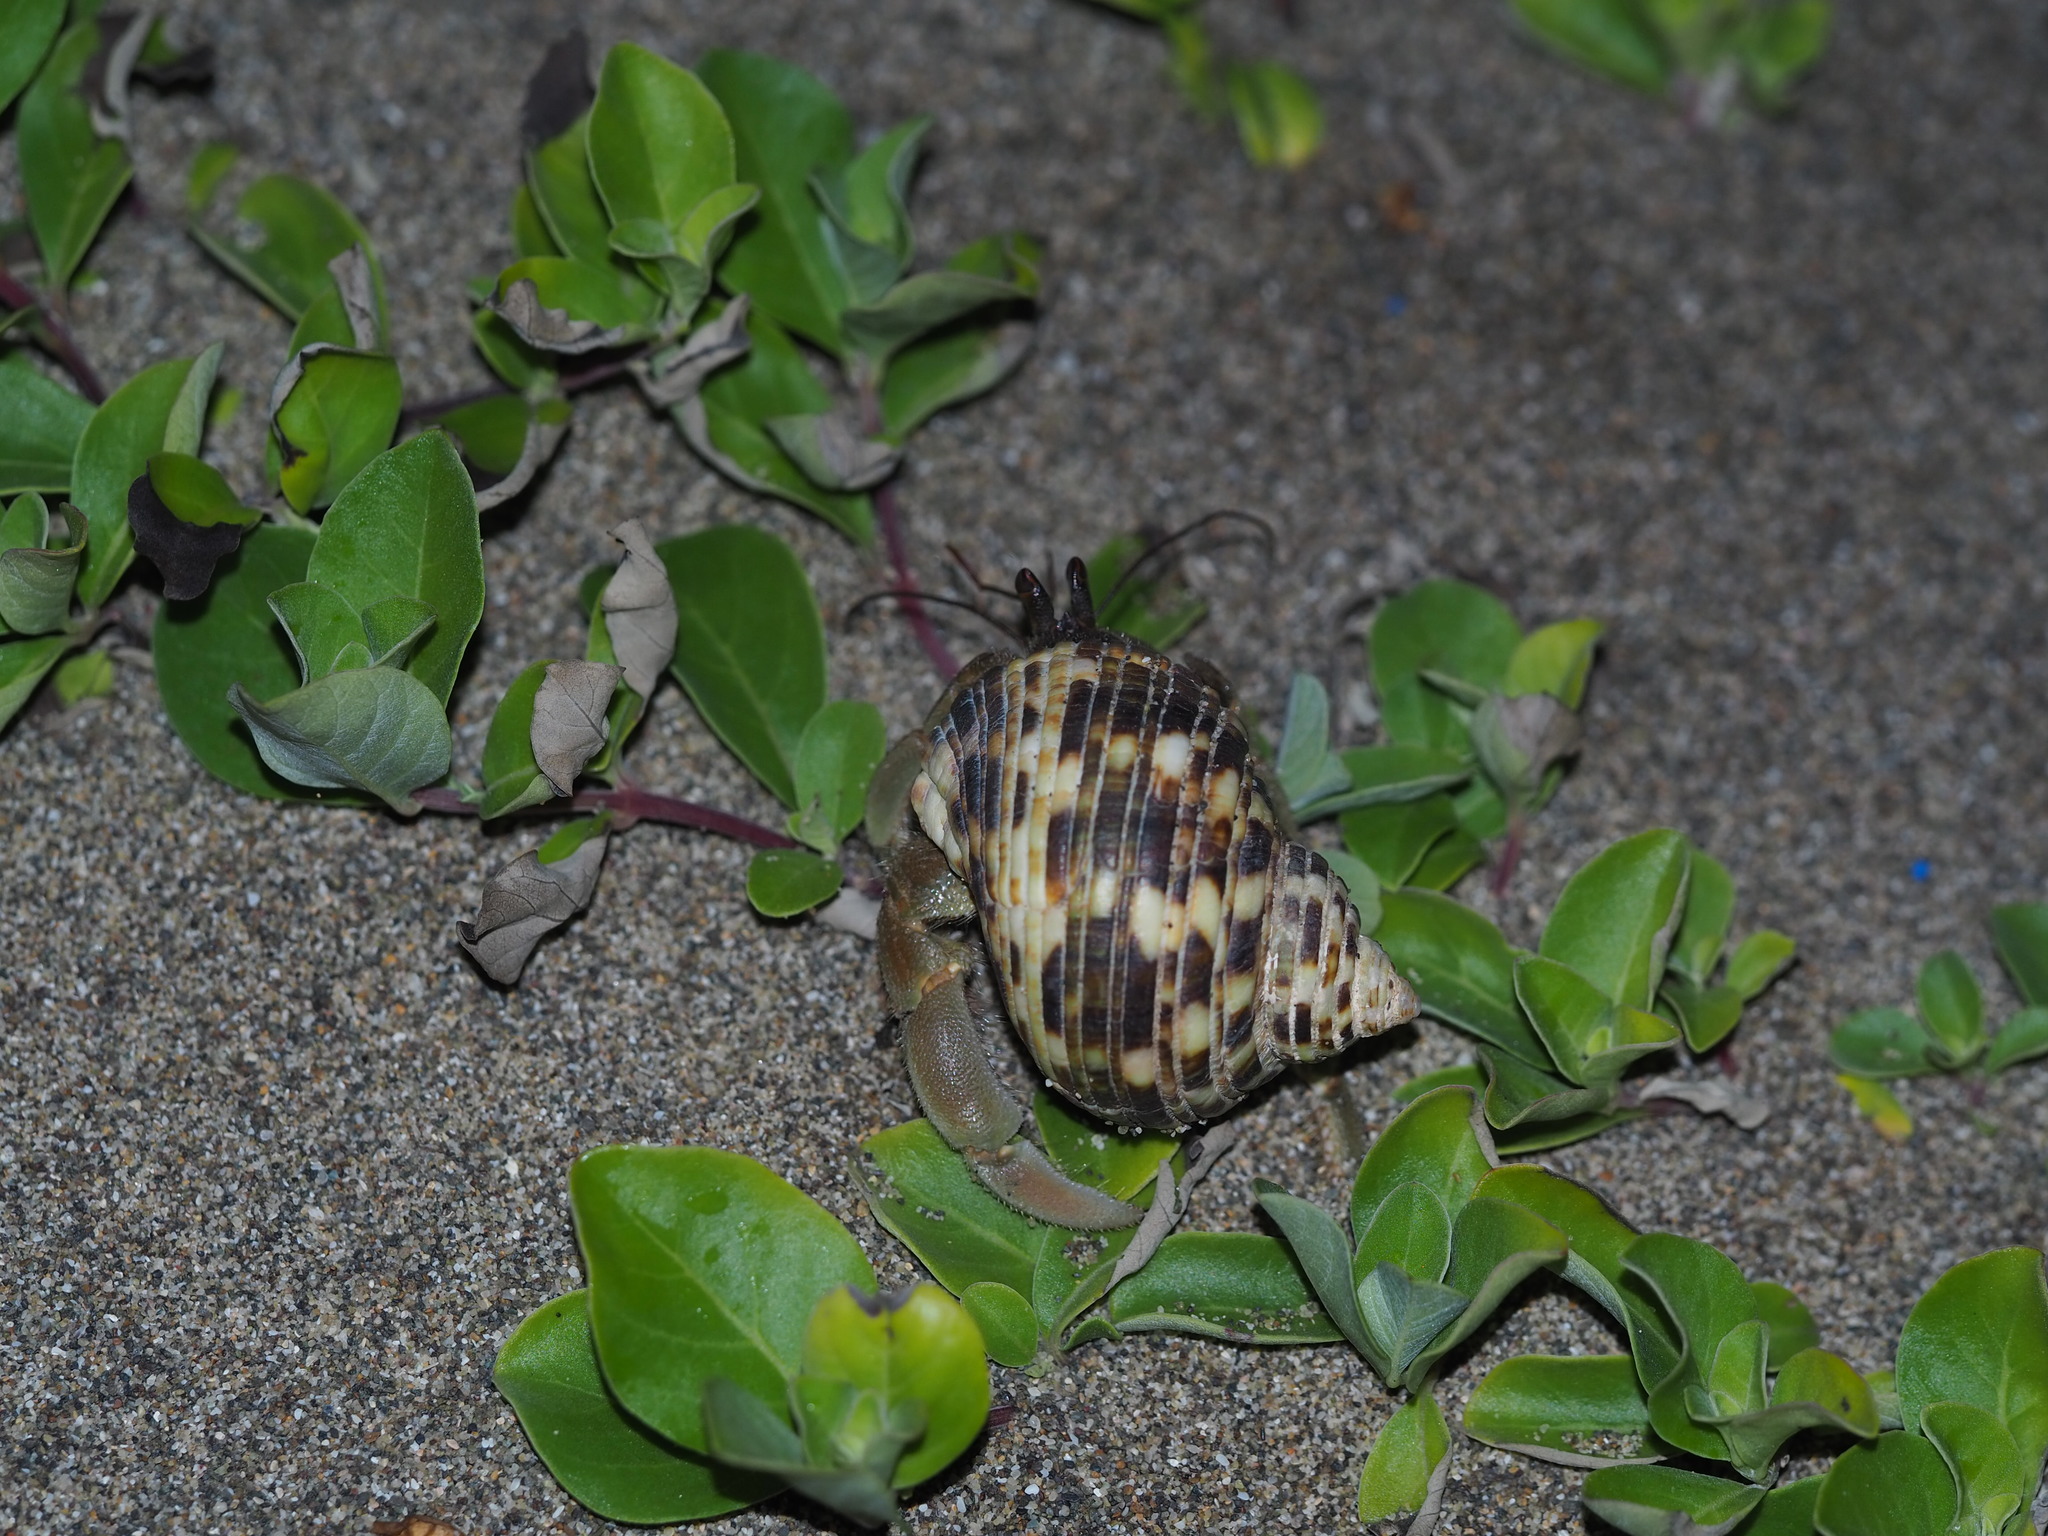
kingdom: Animalia
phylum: Arthropoda
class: Malacostraca
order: Decapoda
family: Coenobitidae
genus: Coenobita
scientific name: Coenobita rugosus
